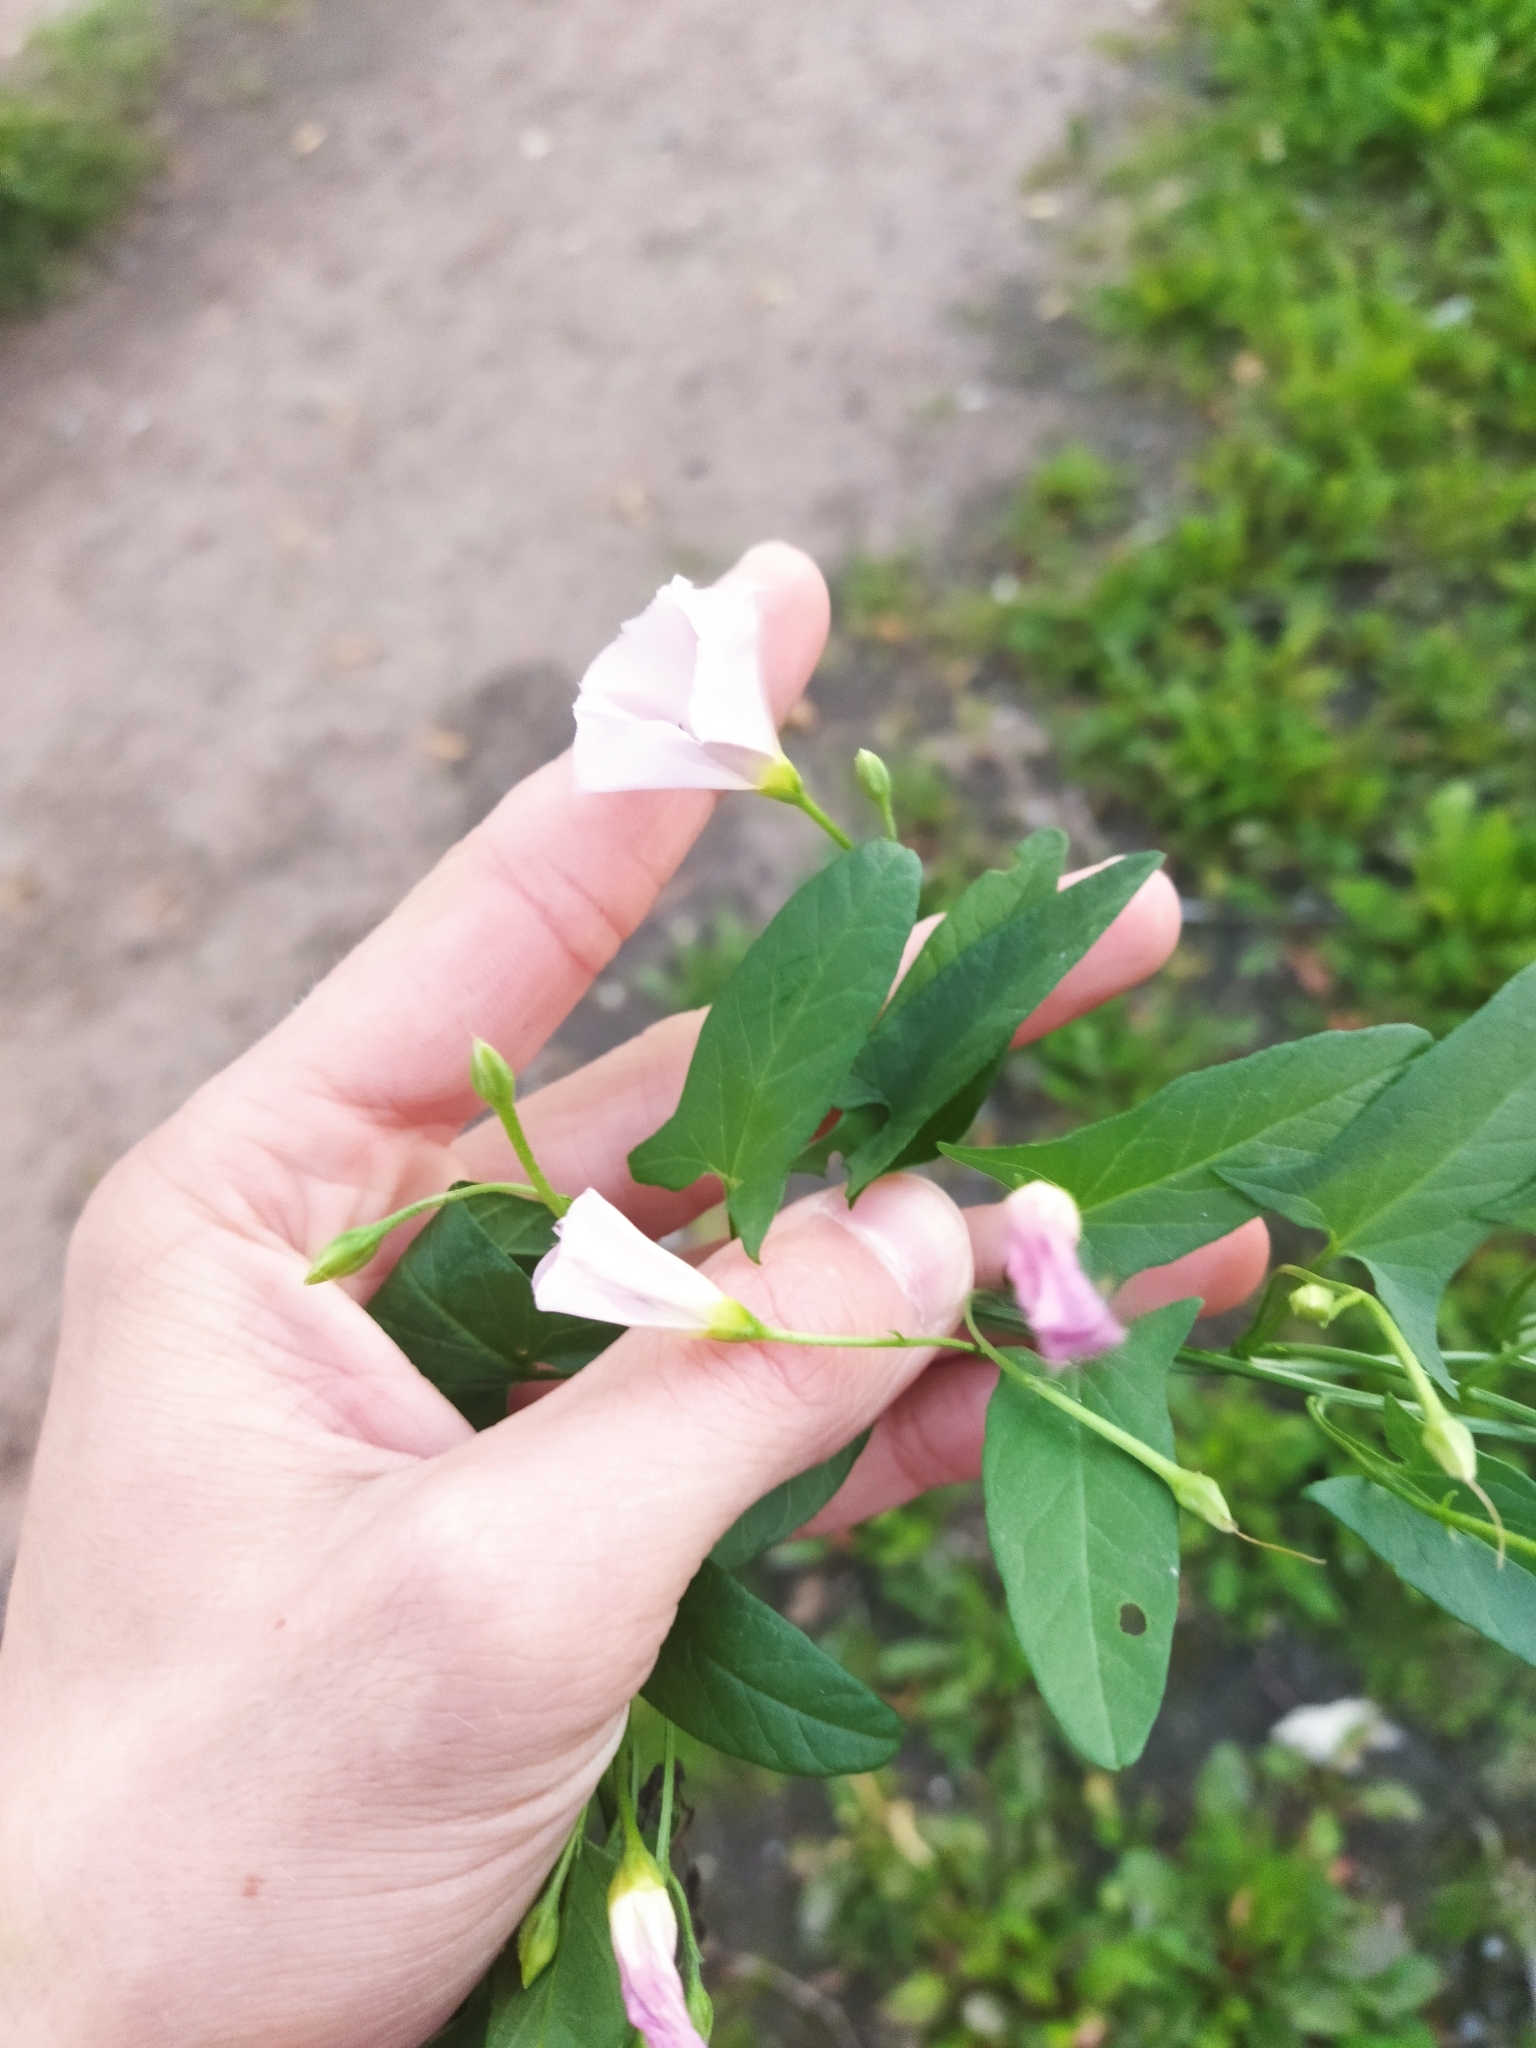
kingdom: Plantae
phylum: Tracheophyta
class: Magnoliopsida
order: Solanales
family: Convolvulaceae
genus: Convolvulus
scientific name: Convolvulus arvensis
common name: Field bindweed
